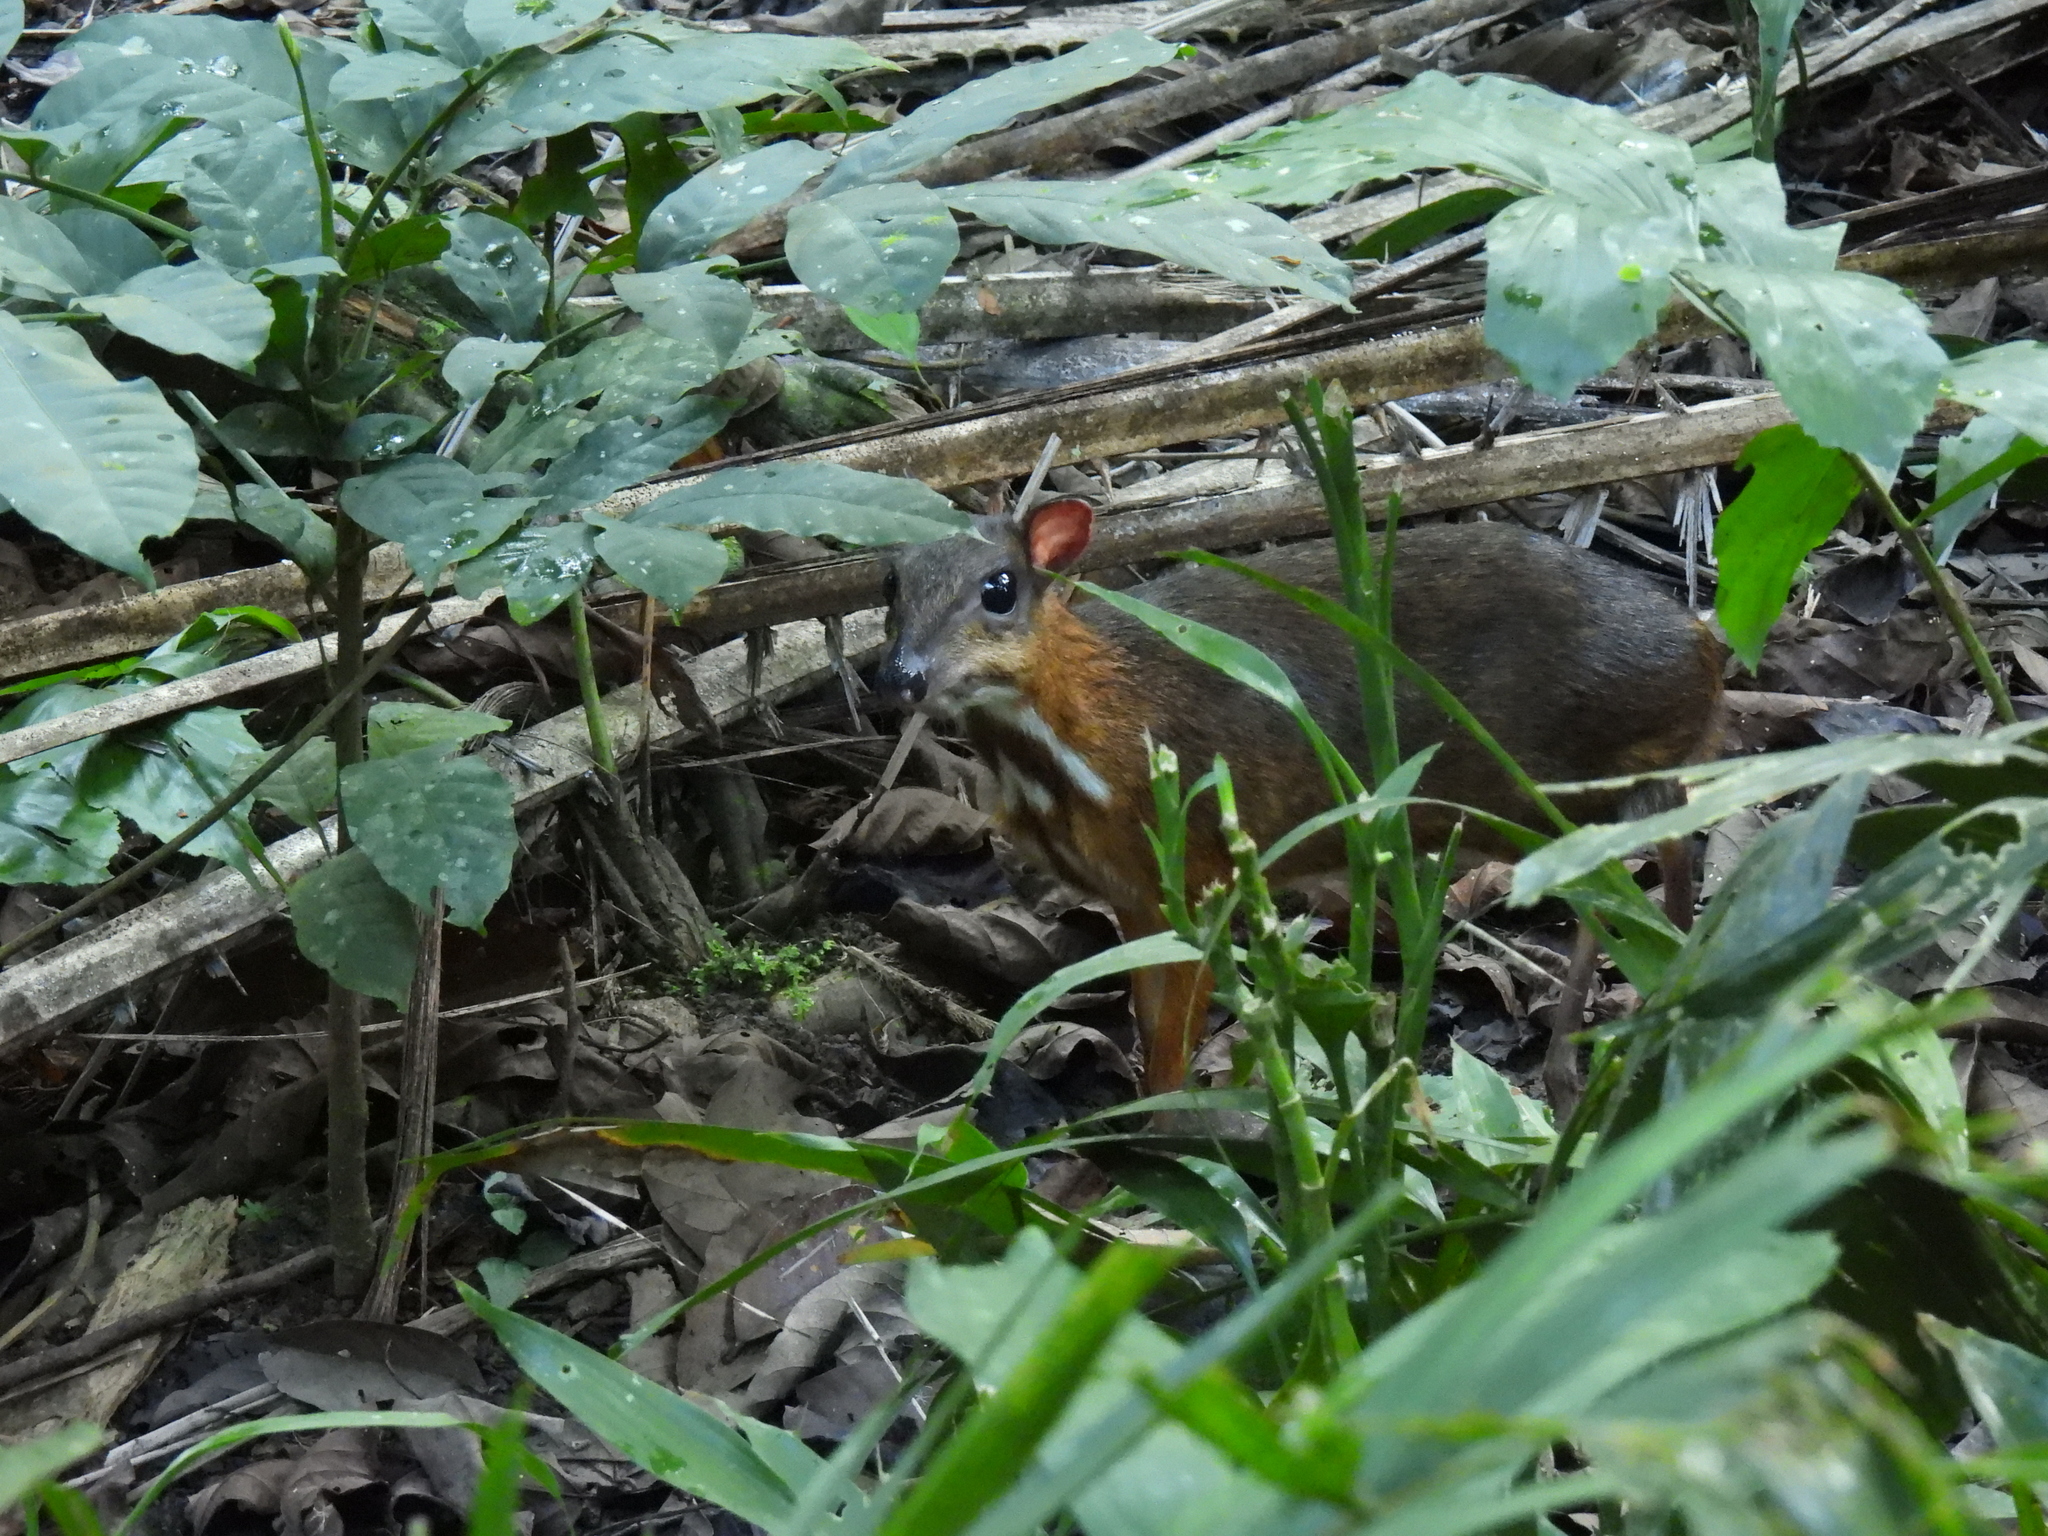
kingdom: Animalia
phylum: Chordata
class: Mammalia
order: Artiodactyla
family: Tragulidae
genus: Tragulus
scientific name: Tragulus kanchil
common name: Lesser mouse-deer
